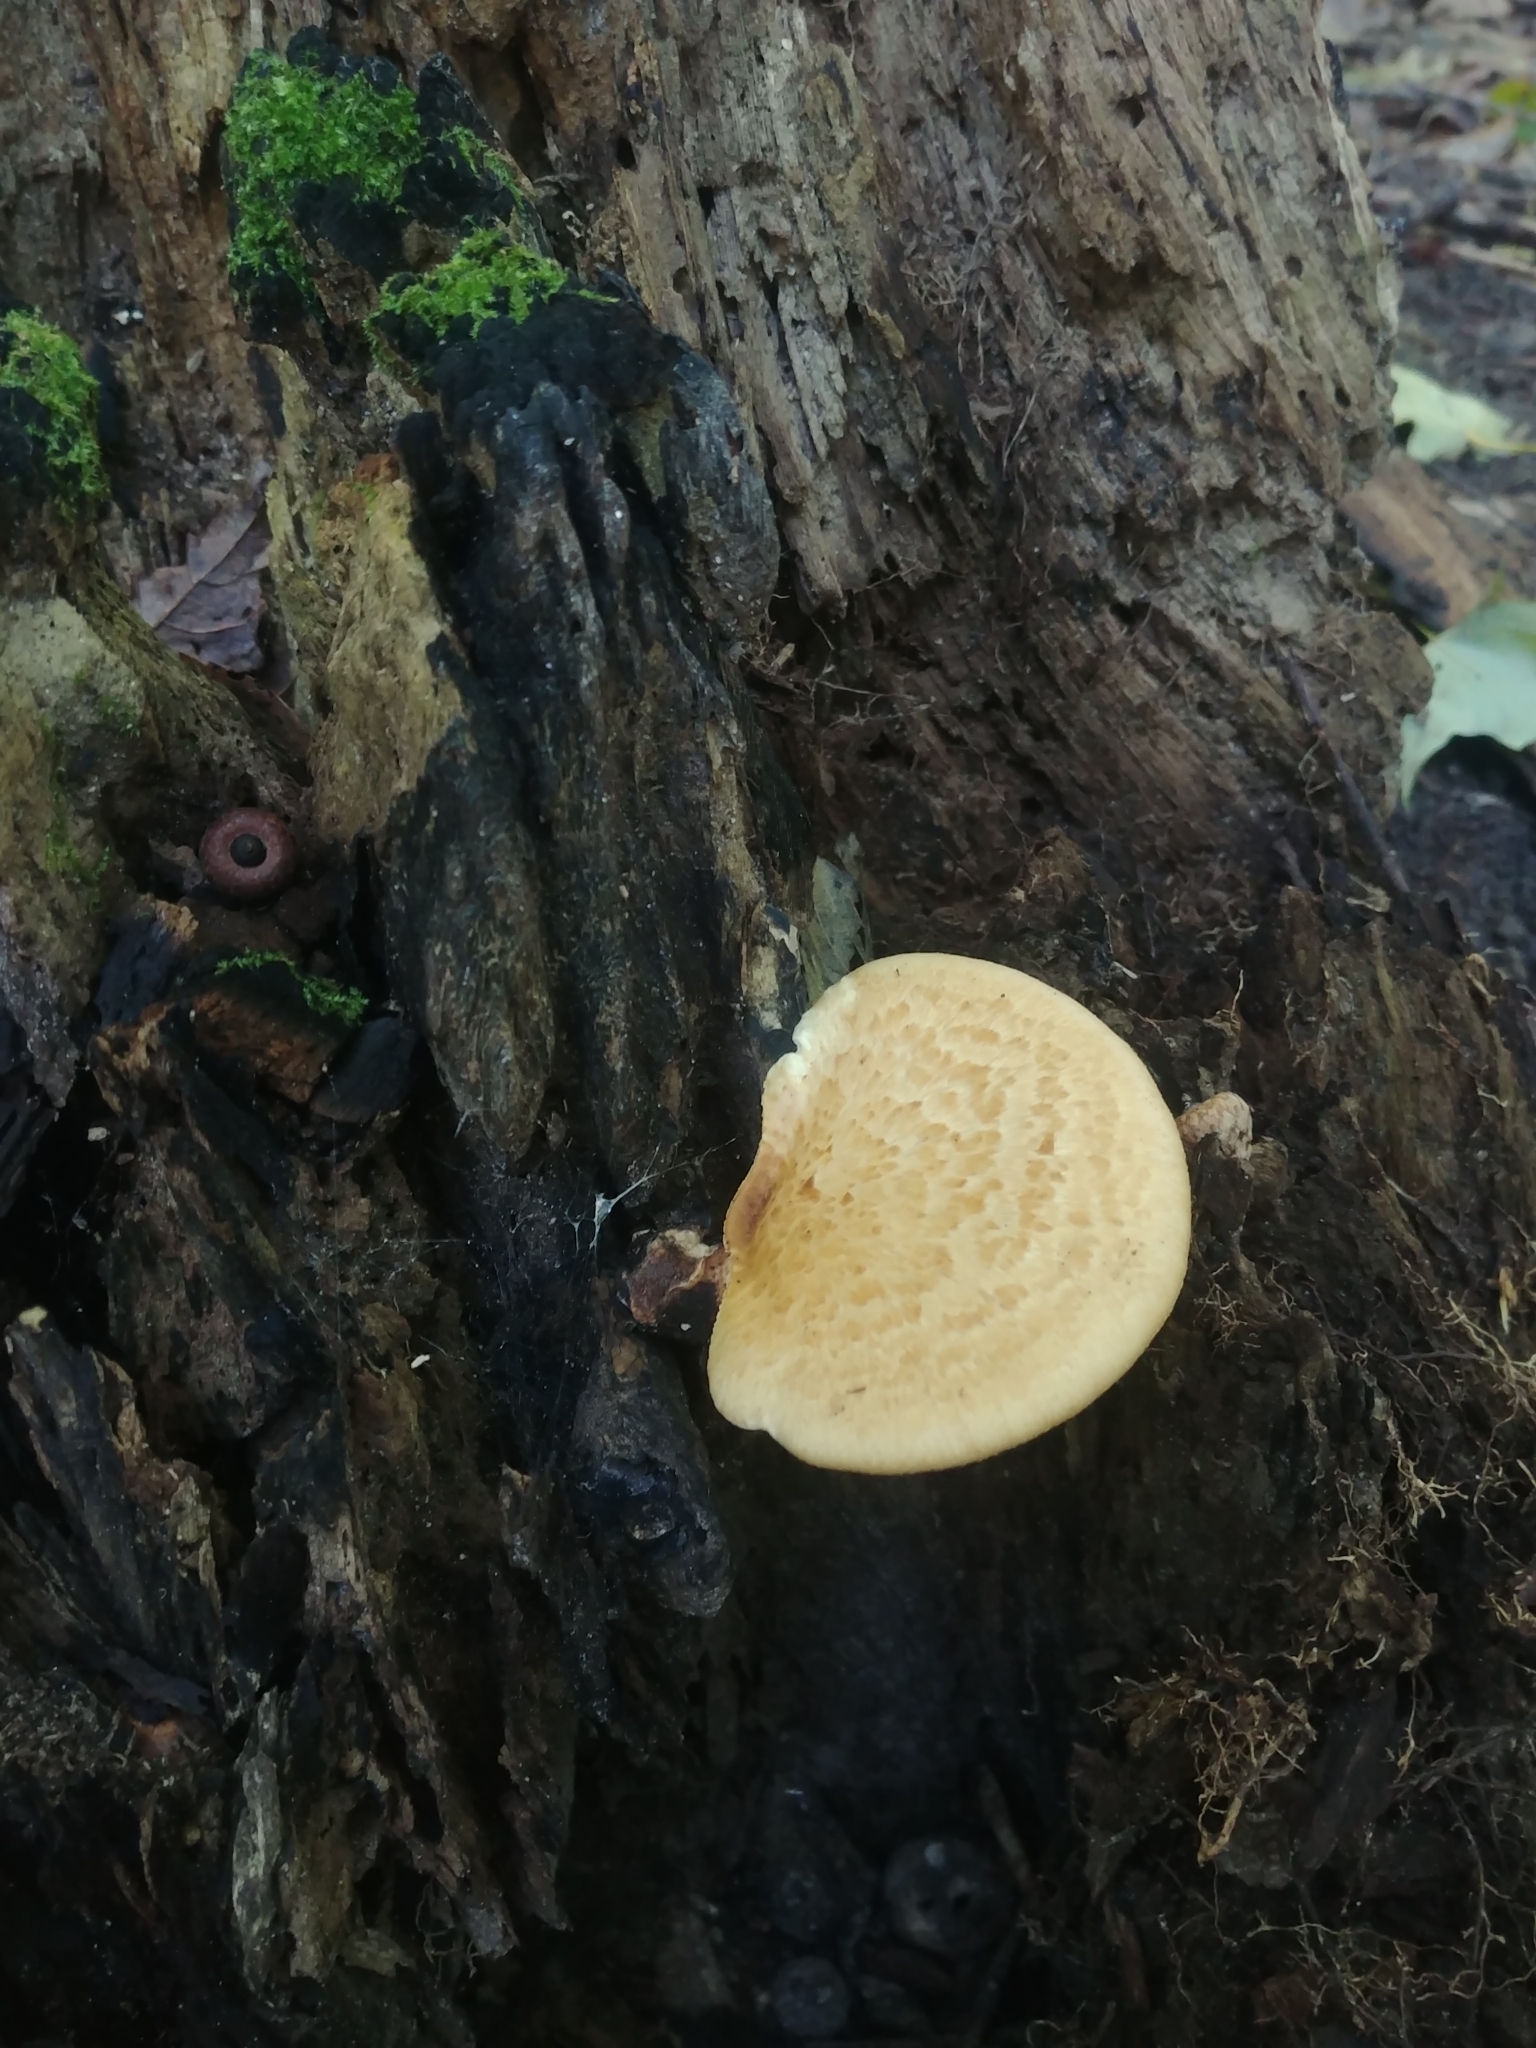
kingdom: Fungi
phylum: Basidiomycota
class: Agaricomycetes
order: Polyporales
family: Polyporaceae
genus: Cerioporus
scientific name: Cerioporus squamosus
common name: Dryad's saddle
